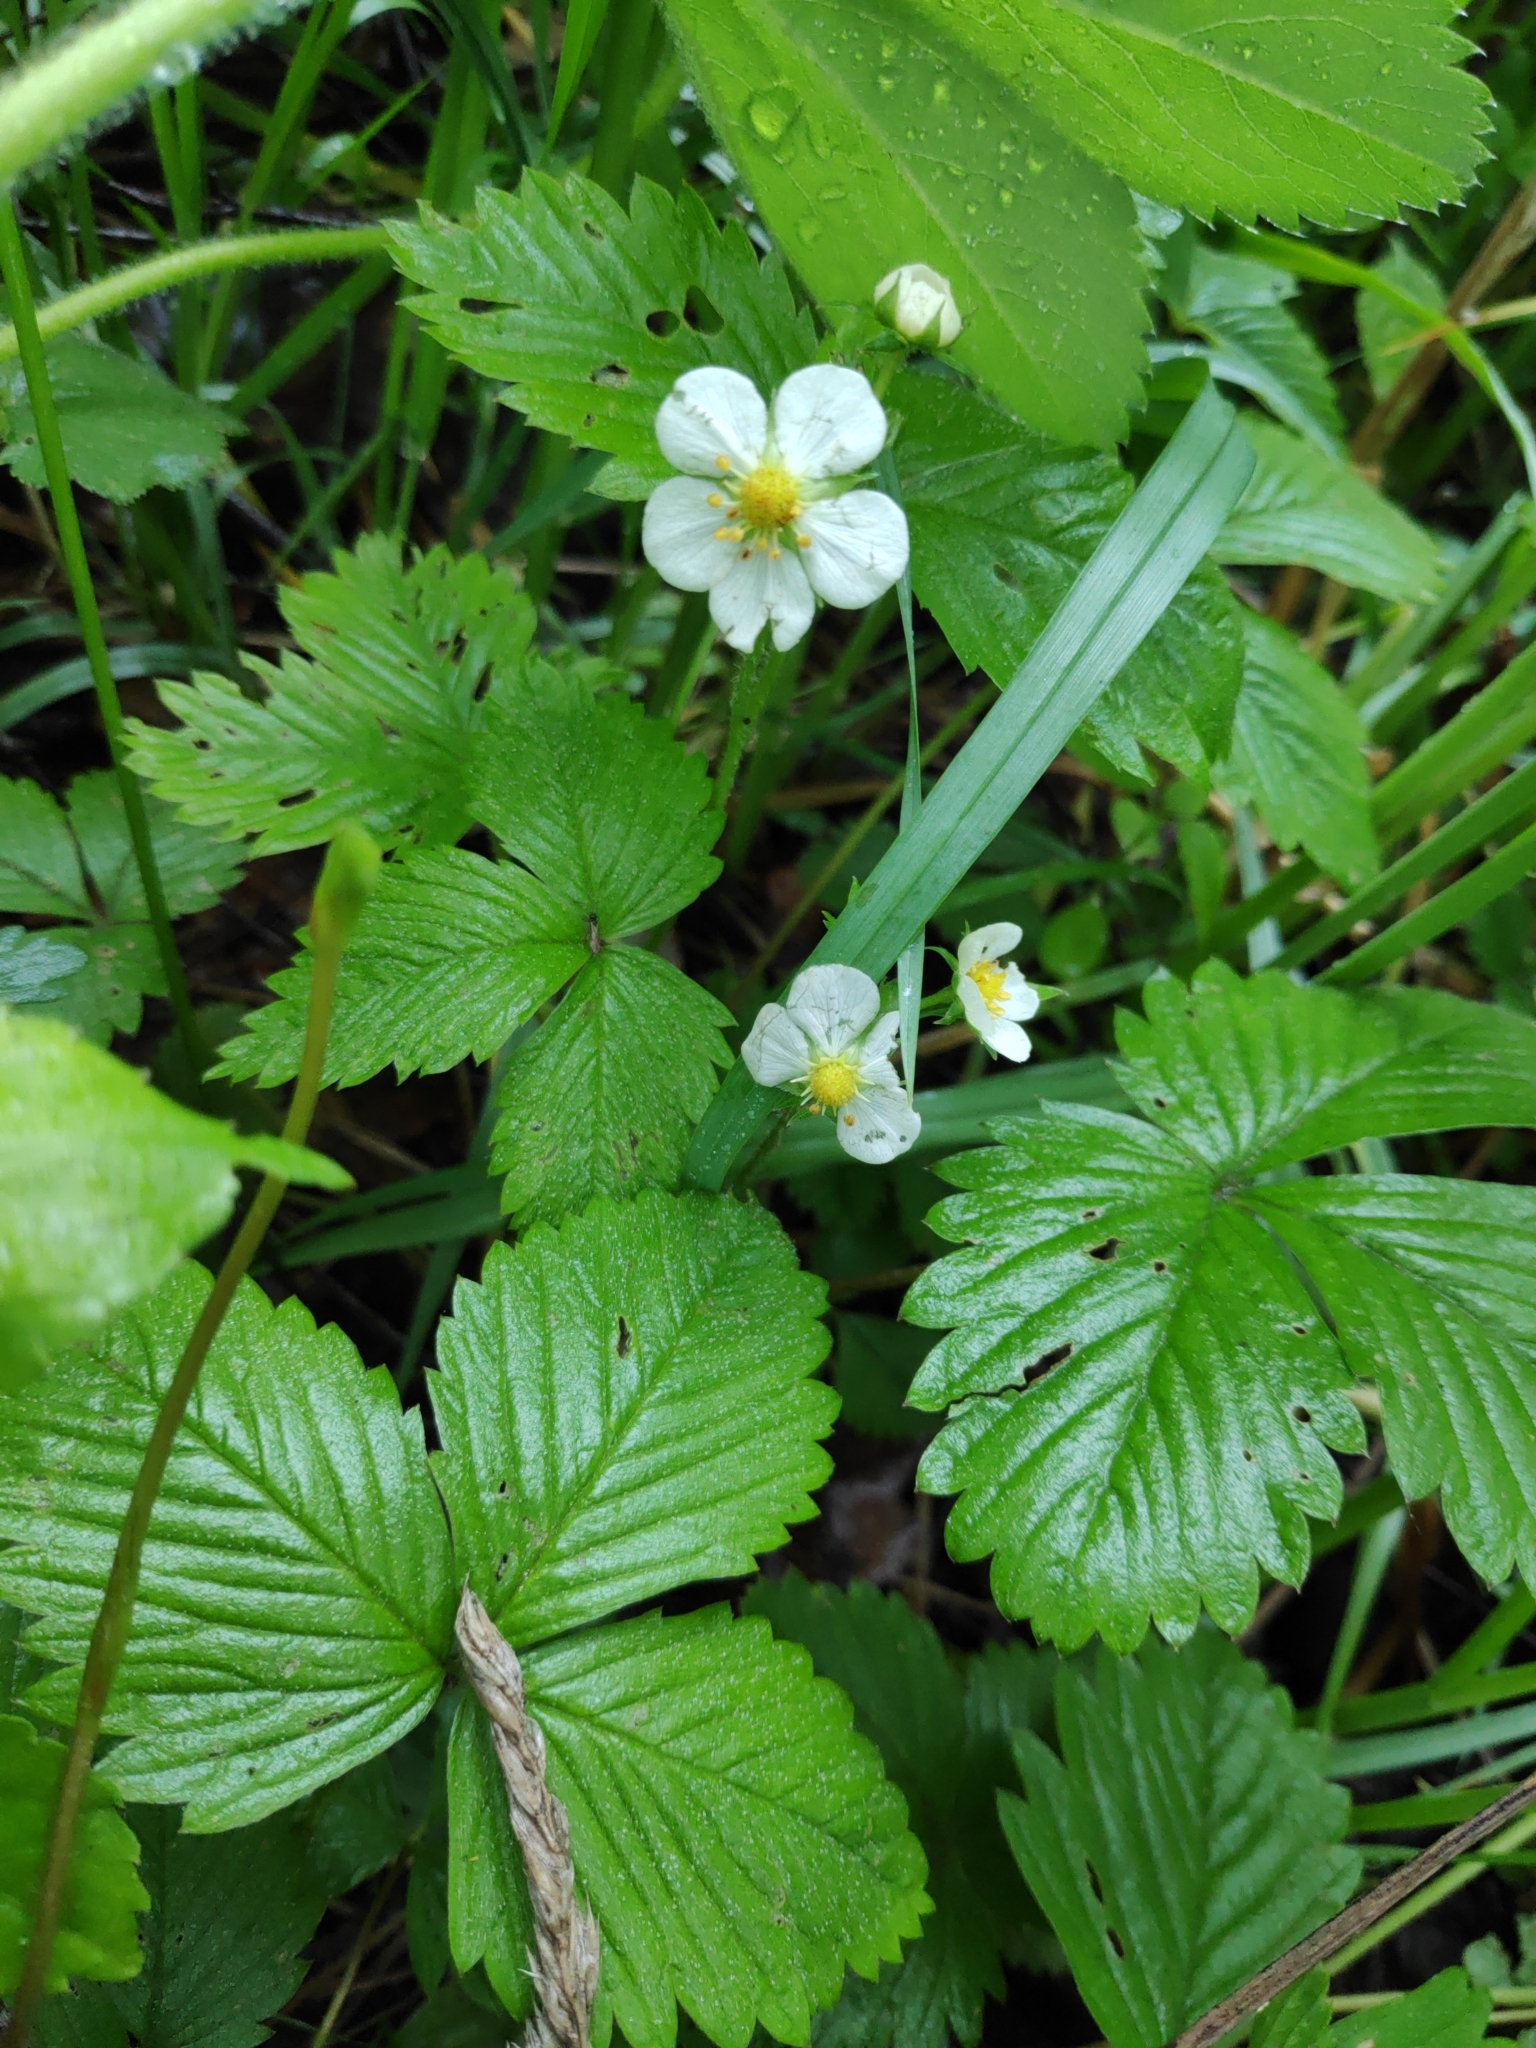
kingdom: Plantae
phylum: Tracheophyta
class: Magnoliopsida
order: Rosales
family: Rosaceae
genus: Fragaria
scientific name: Fragaria vesca
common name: Wild strawberry
